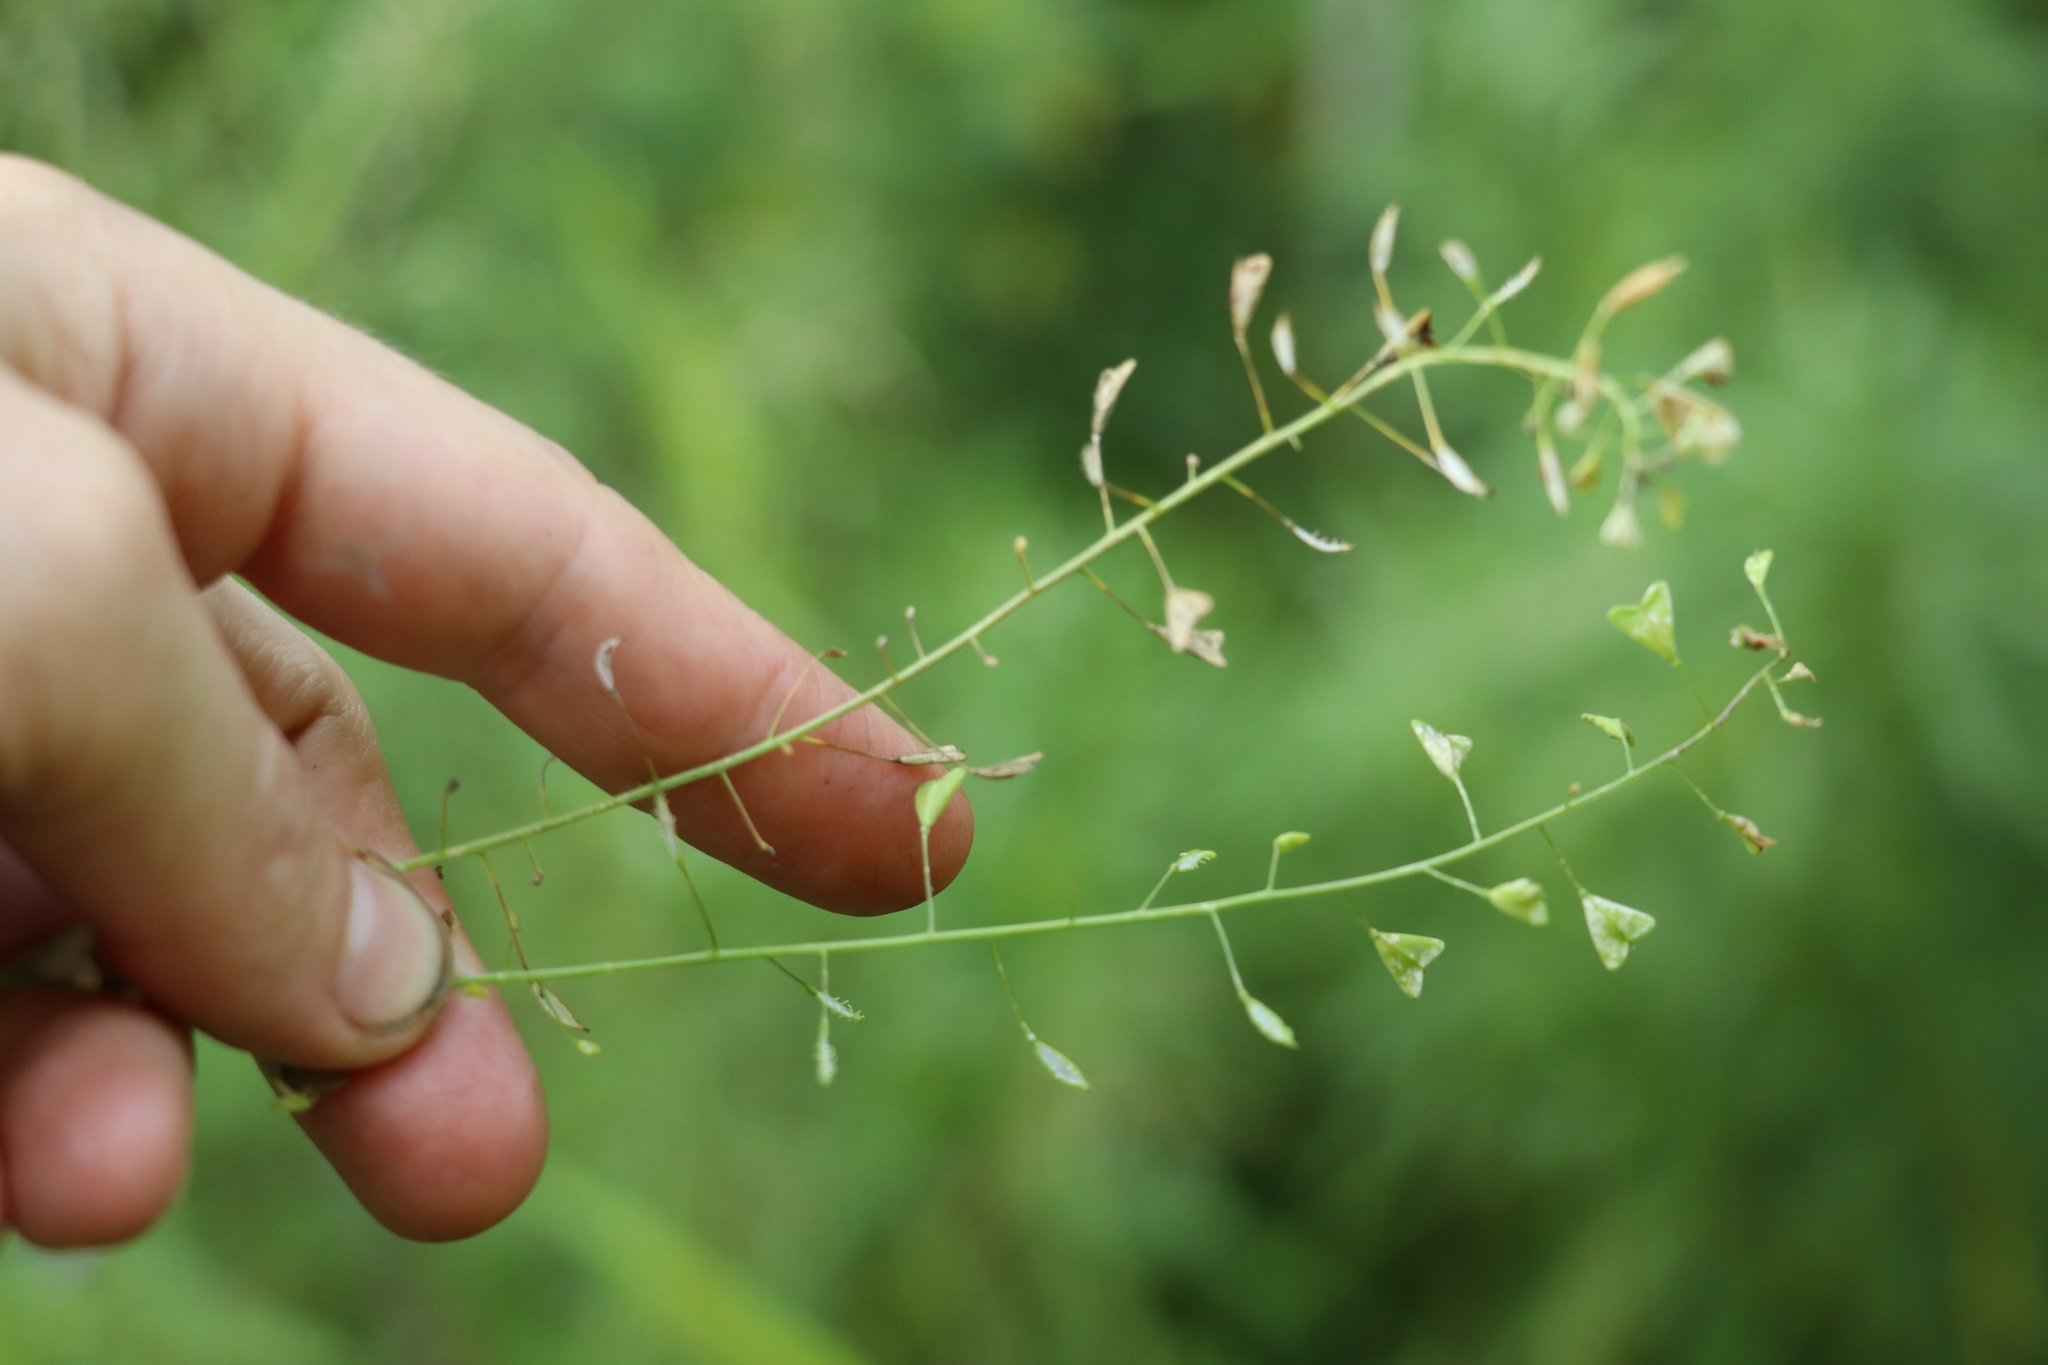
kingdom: Plantae
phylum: Tracheophyta
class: Magnoliopsida
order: Brassicales
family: Brassicaceae
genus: Capsella
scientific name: Capsella bursa-pastoris
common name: Shepherd's purse
